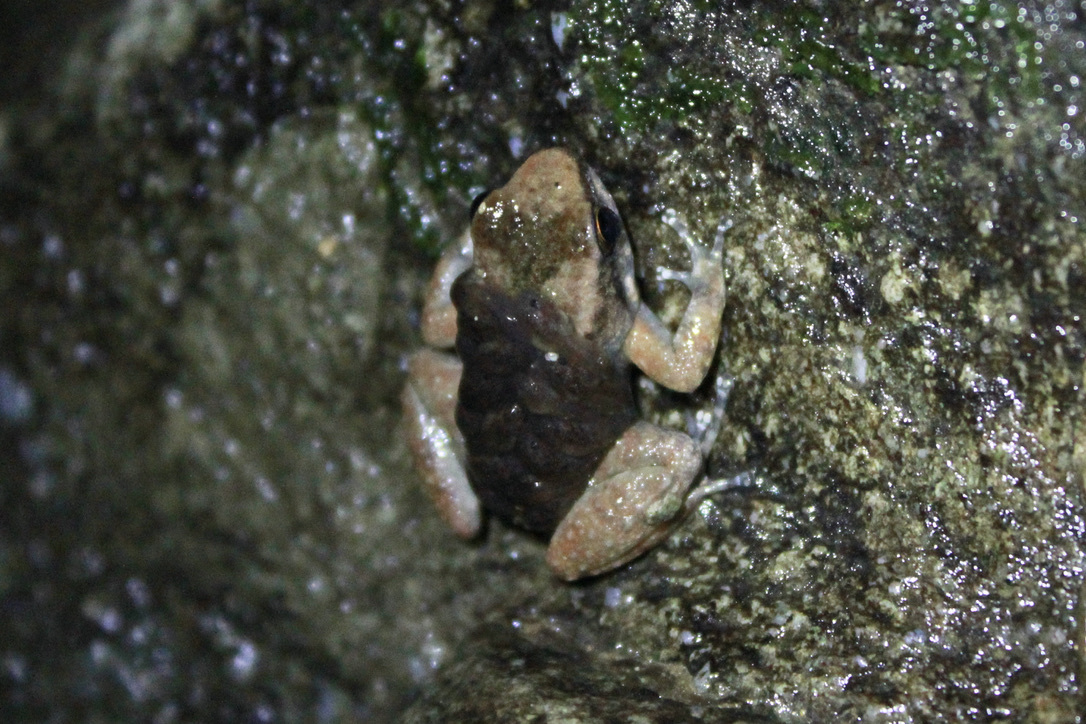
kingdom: Animalia
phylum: Chordata
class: Amphibia
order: Anura
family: Aromobatidae
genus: Mannophryne
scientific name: Mannophryne olmonae
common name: Bloody bay poison frog
